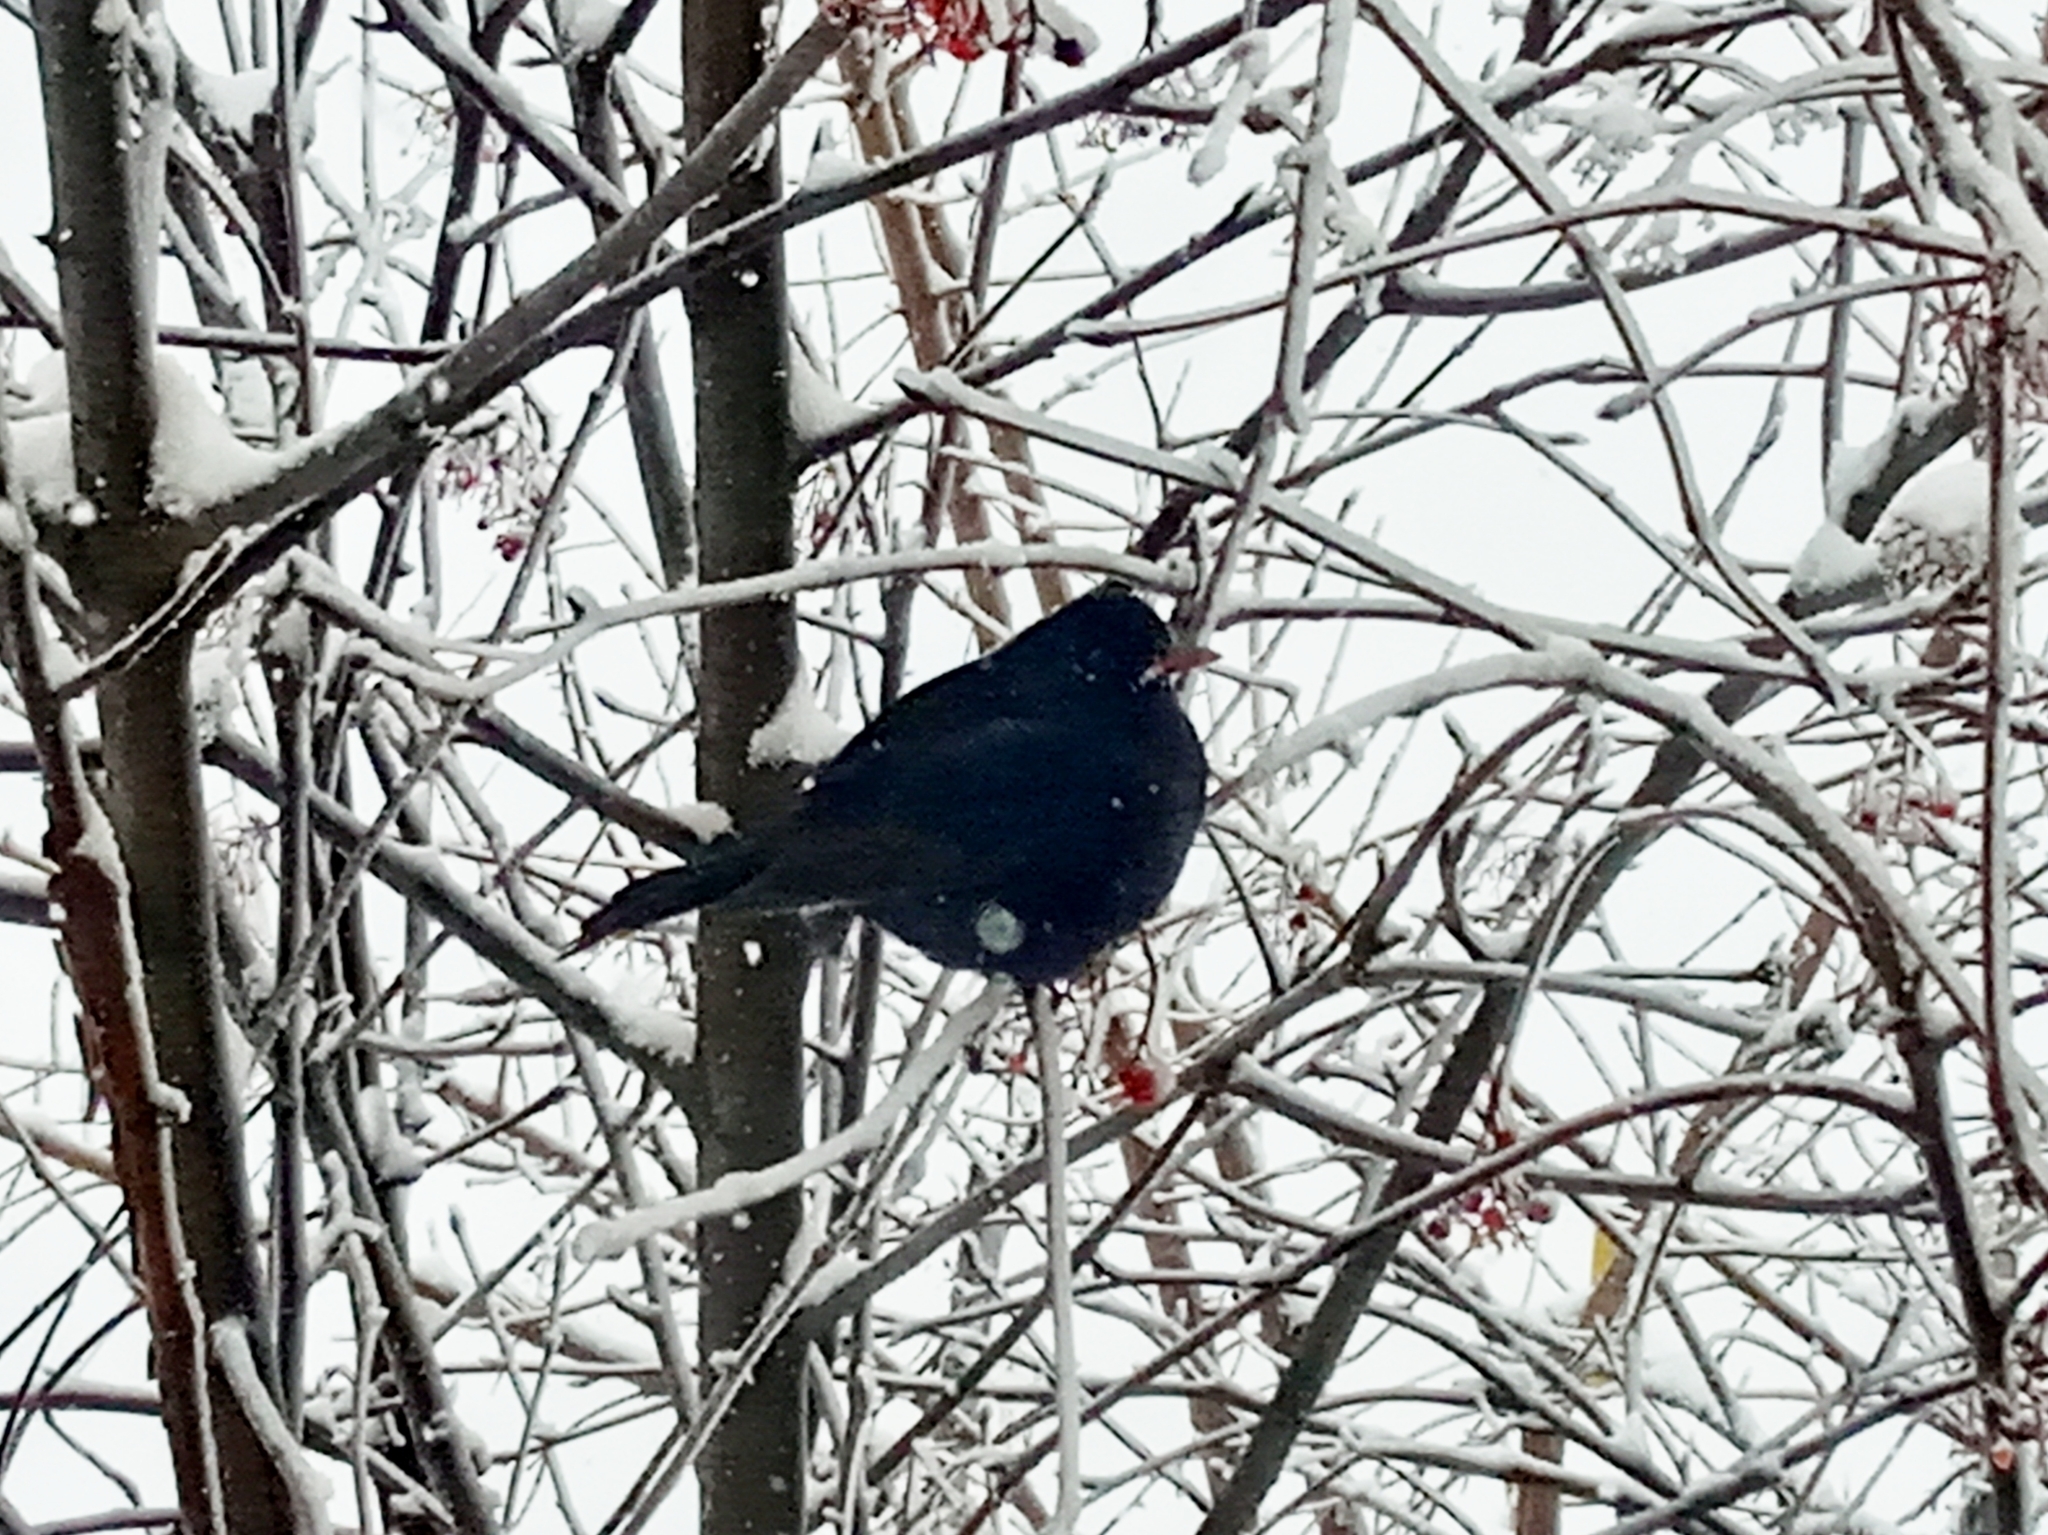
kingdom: Animalia
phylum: Chordata
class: Aves
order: Passeriformes
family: Turdidae
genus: Turdus
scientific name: Turdus merula
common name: Common blackbird
